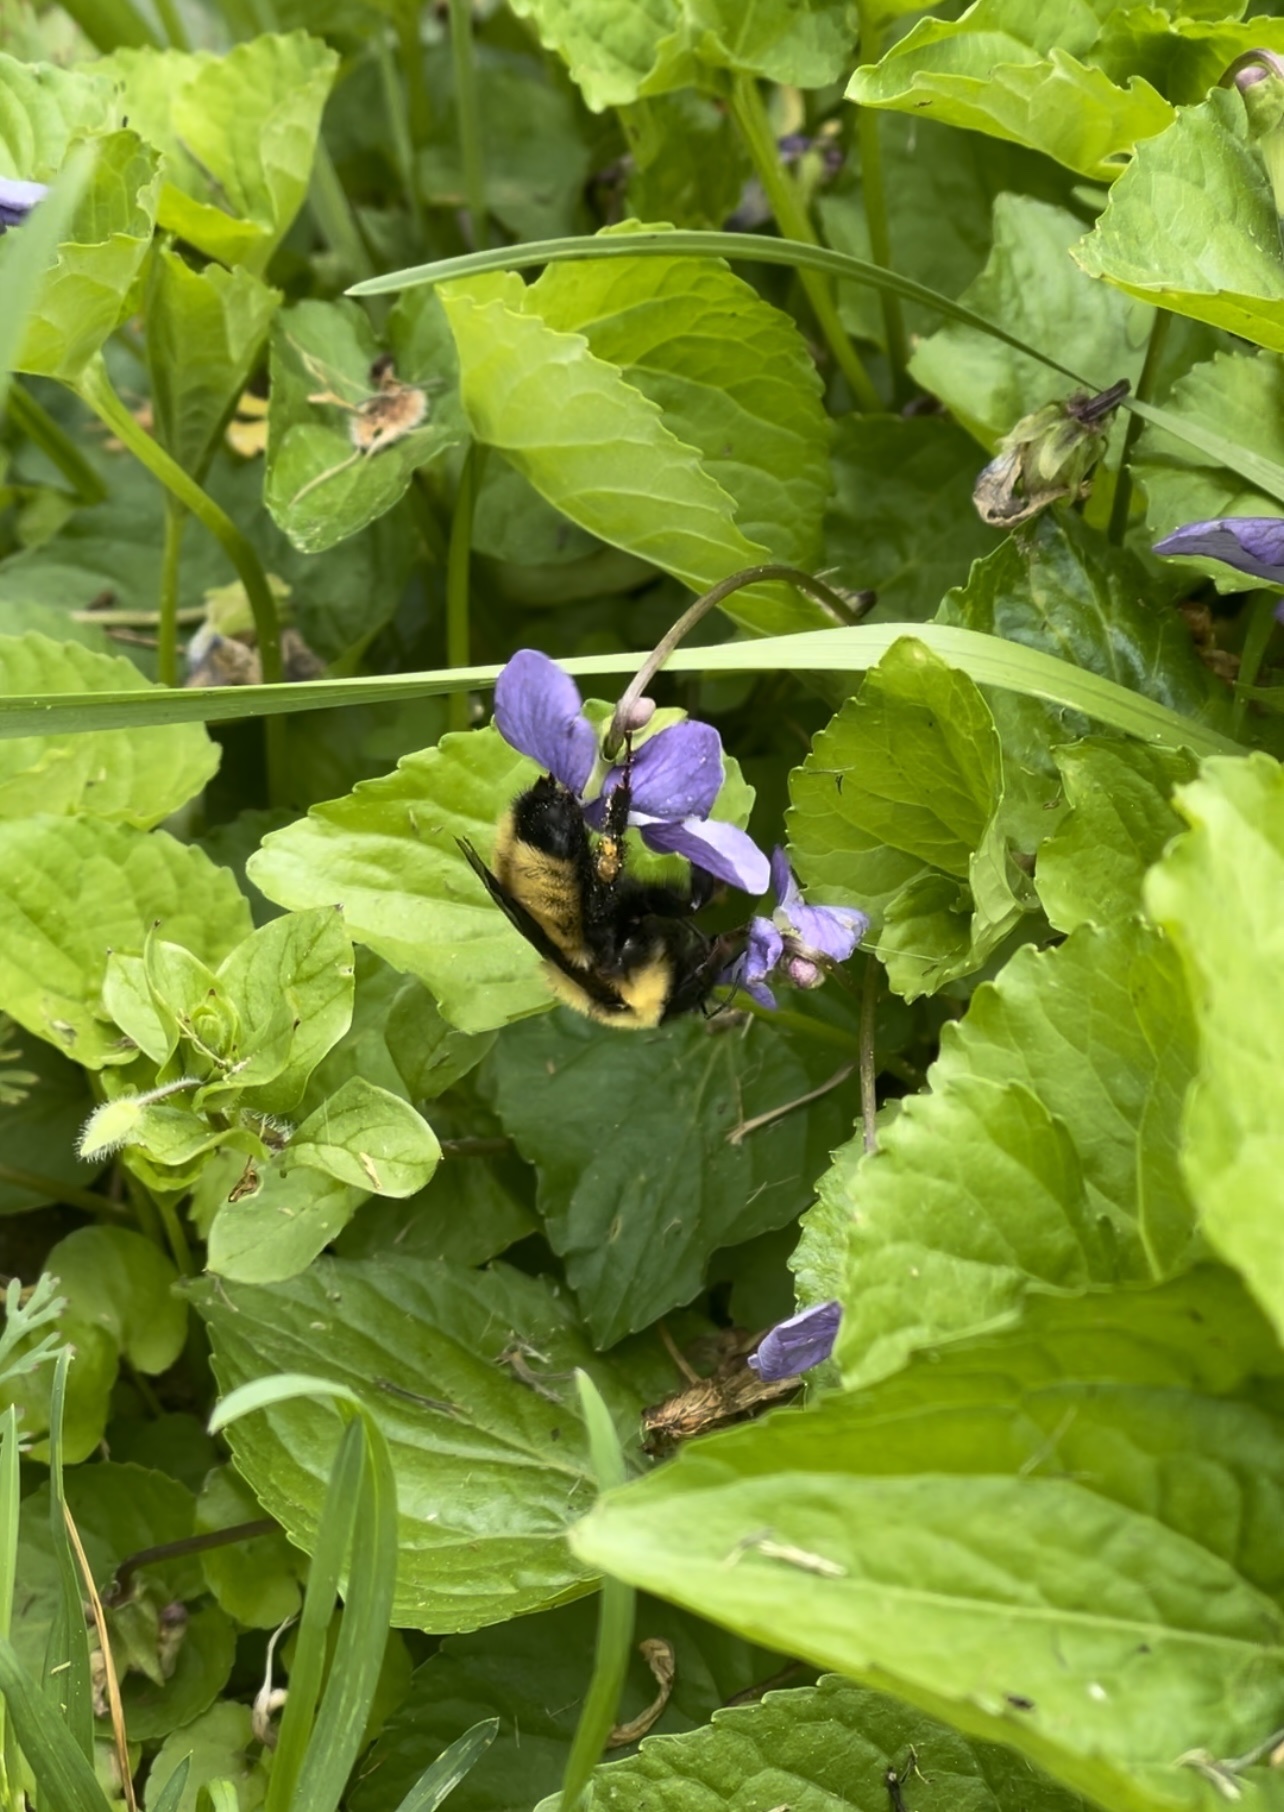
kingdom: Animalia
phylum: Arthropoda
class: Insecta
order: Hymenoptera
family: Apidae
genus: Bombus
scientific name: Bombus fervidus
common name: Yellow bumble bee
